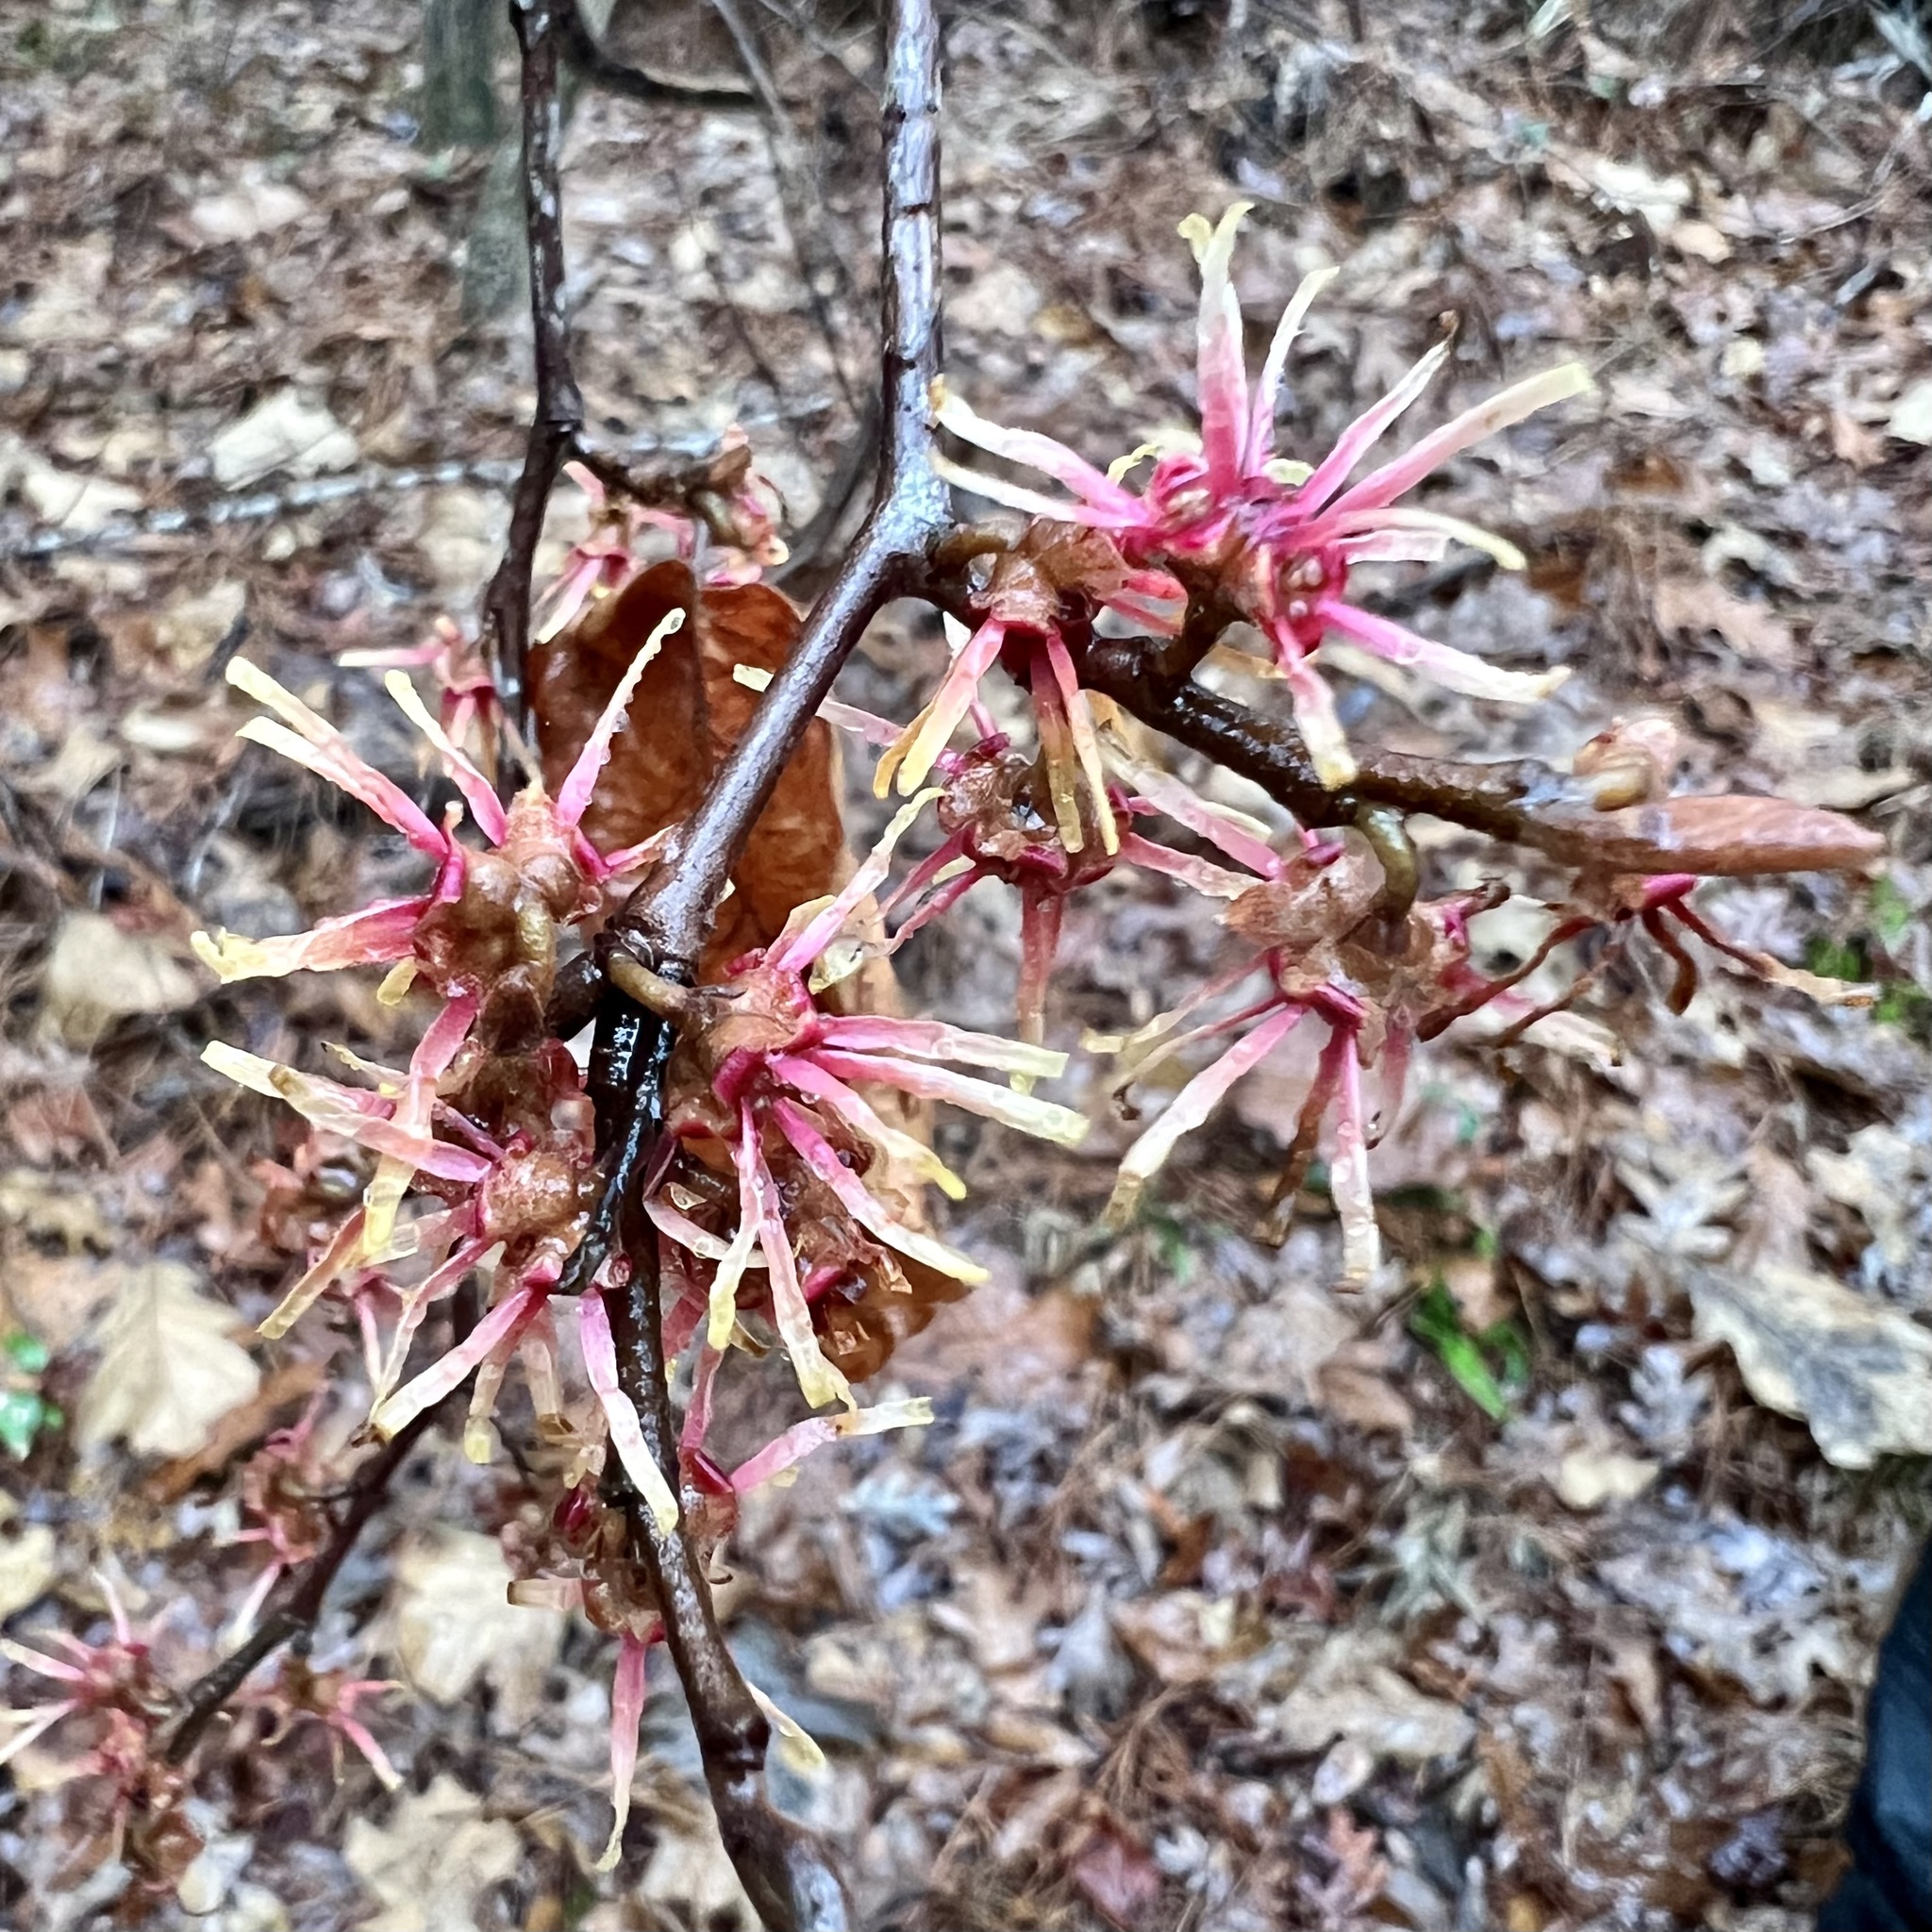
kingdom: Plantae
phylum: Tracheophyta
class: Magnoliopsida
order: Saxifragales
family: Hamamelidaceae
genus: Hamamelis
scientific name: Hamamelis ovalis
